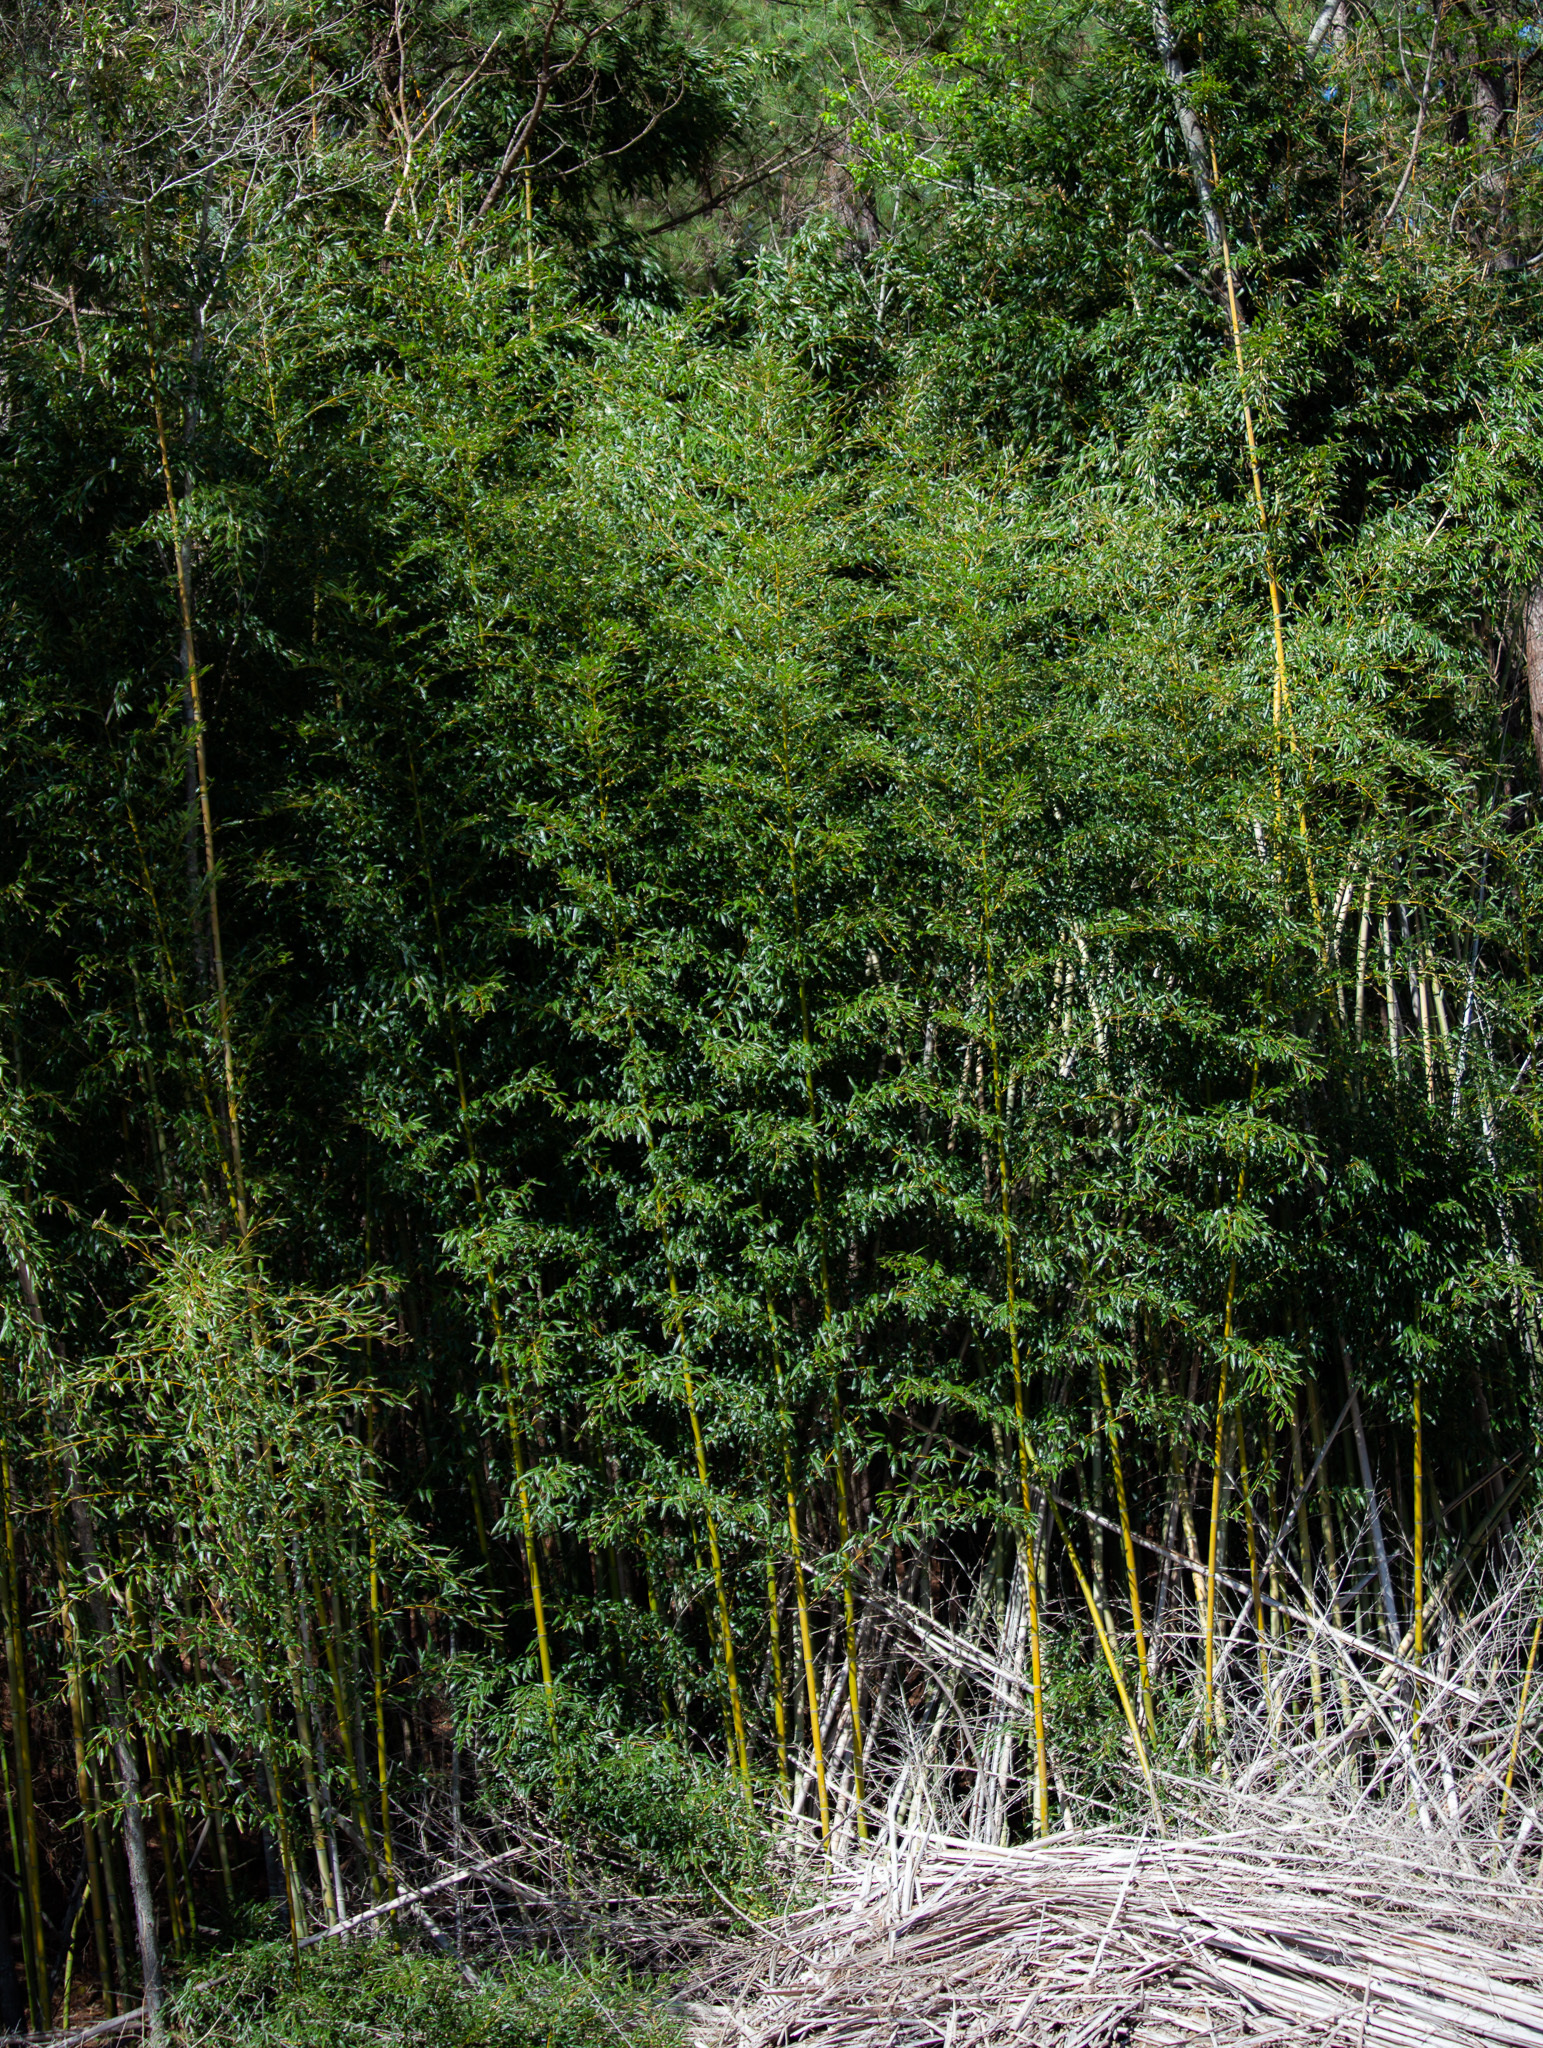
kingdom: Plantae
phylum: Tracheophyta
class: Liliopsida
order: Poales
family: Poaceae
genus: Phyllostachys
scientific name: Phyllostachys aurea
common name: Golden bamboo
